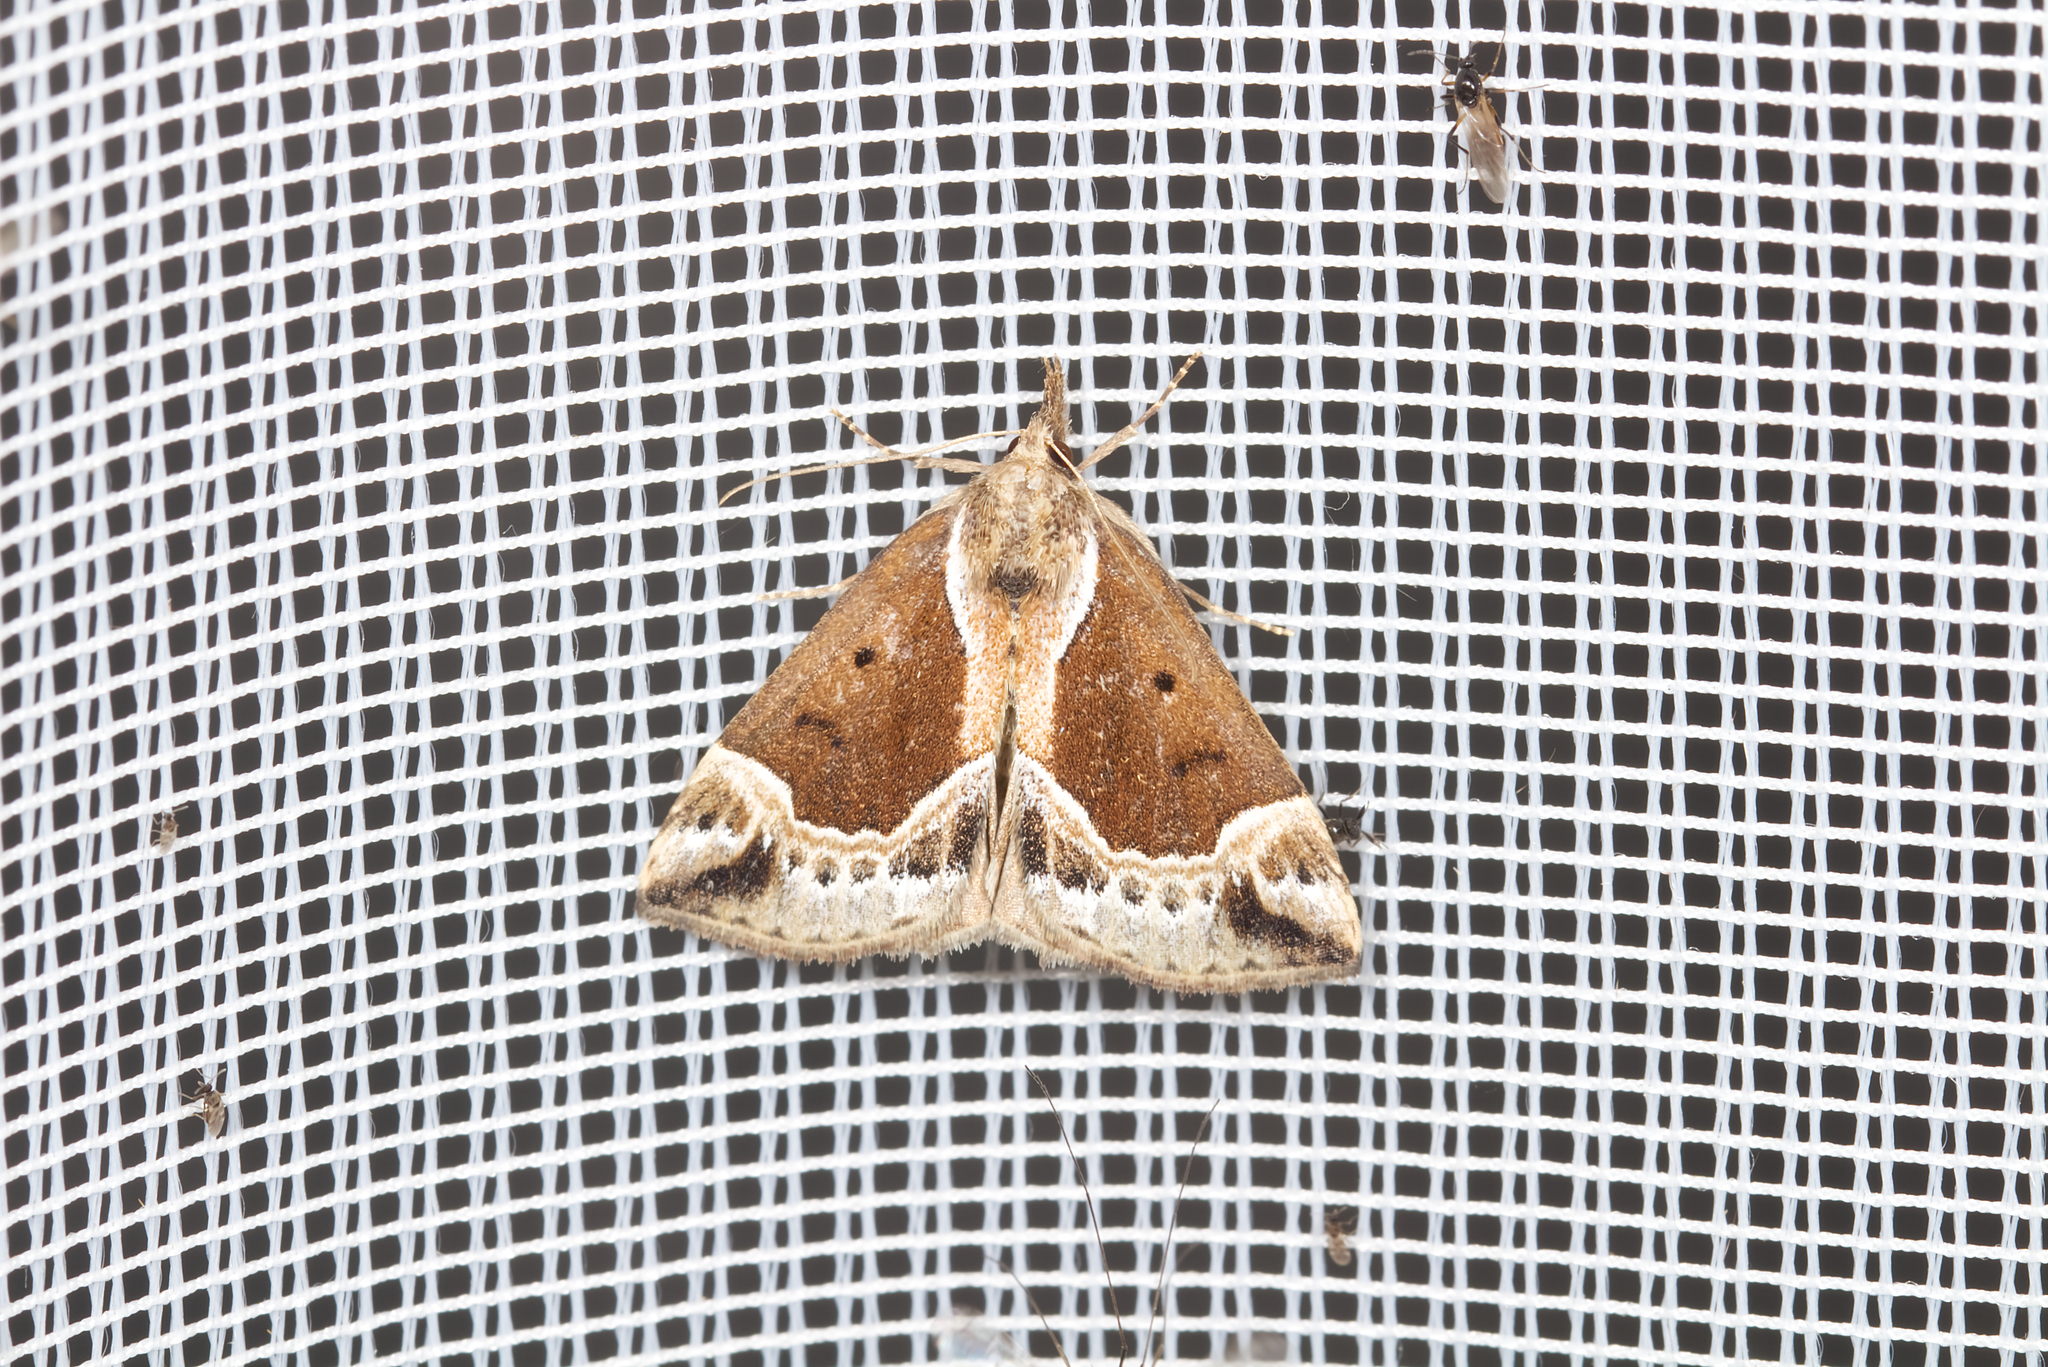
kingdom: Animalia
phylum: Arthropoda
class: Insecta
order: Lepidoptera
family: Erebidae
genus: Hypena
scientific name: Hypena crassalis
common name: Beautiful snout
